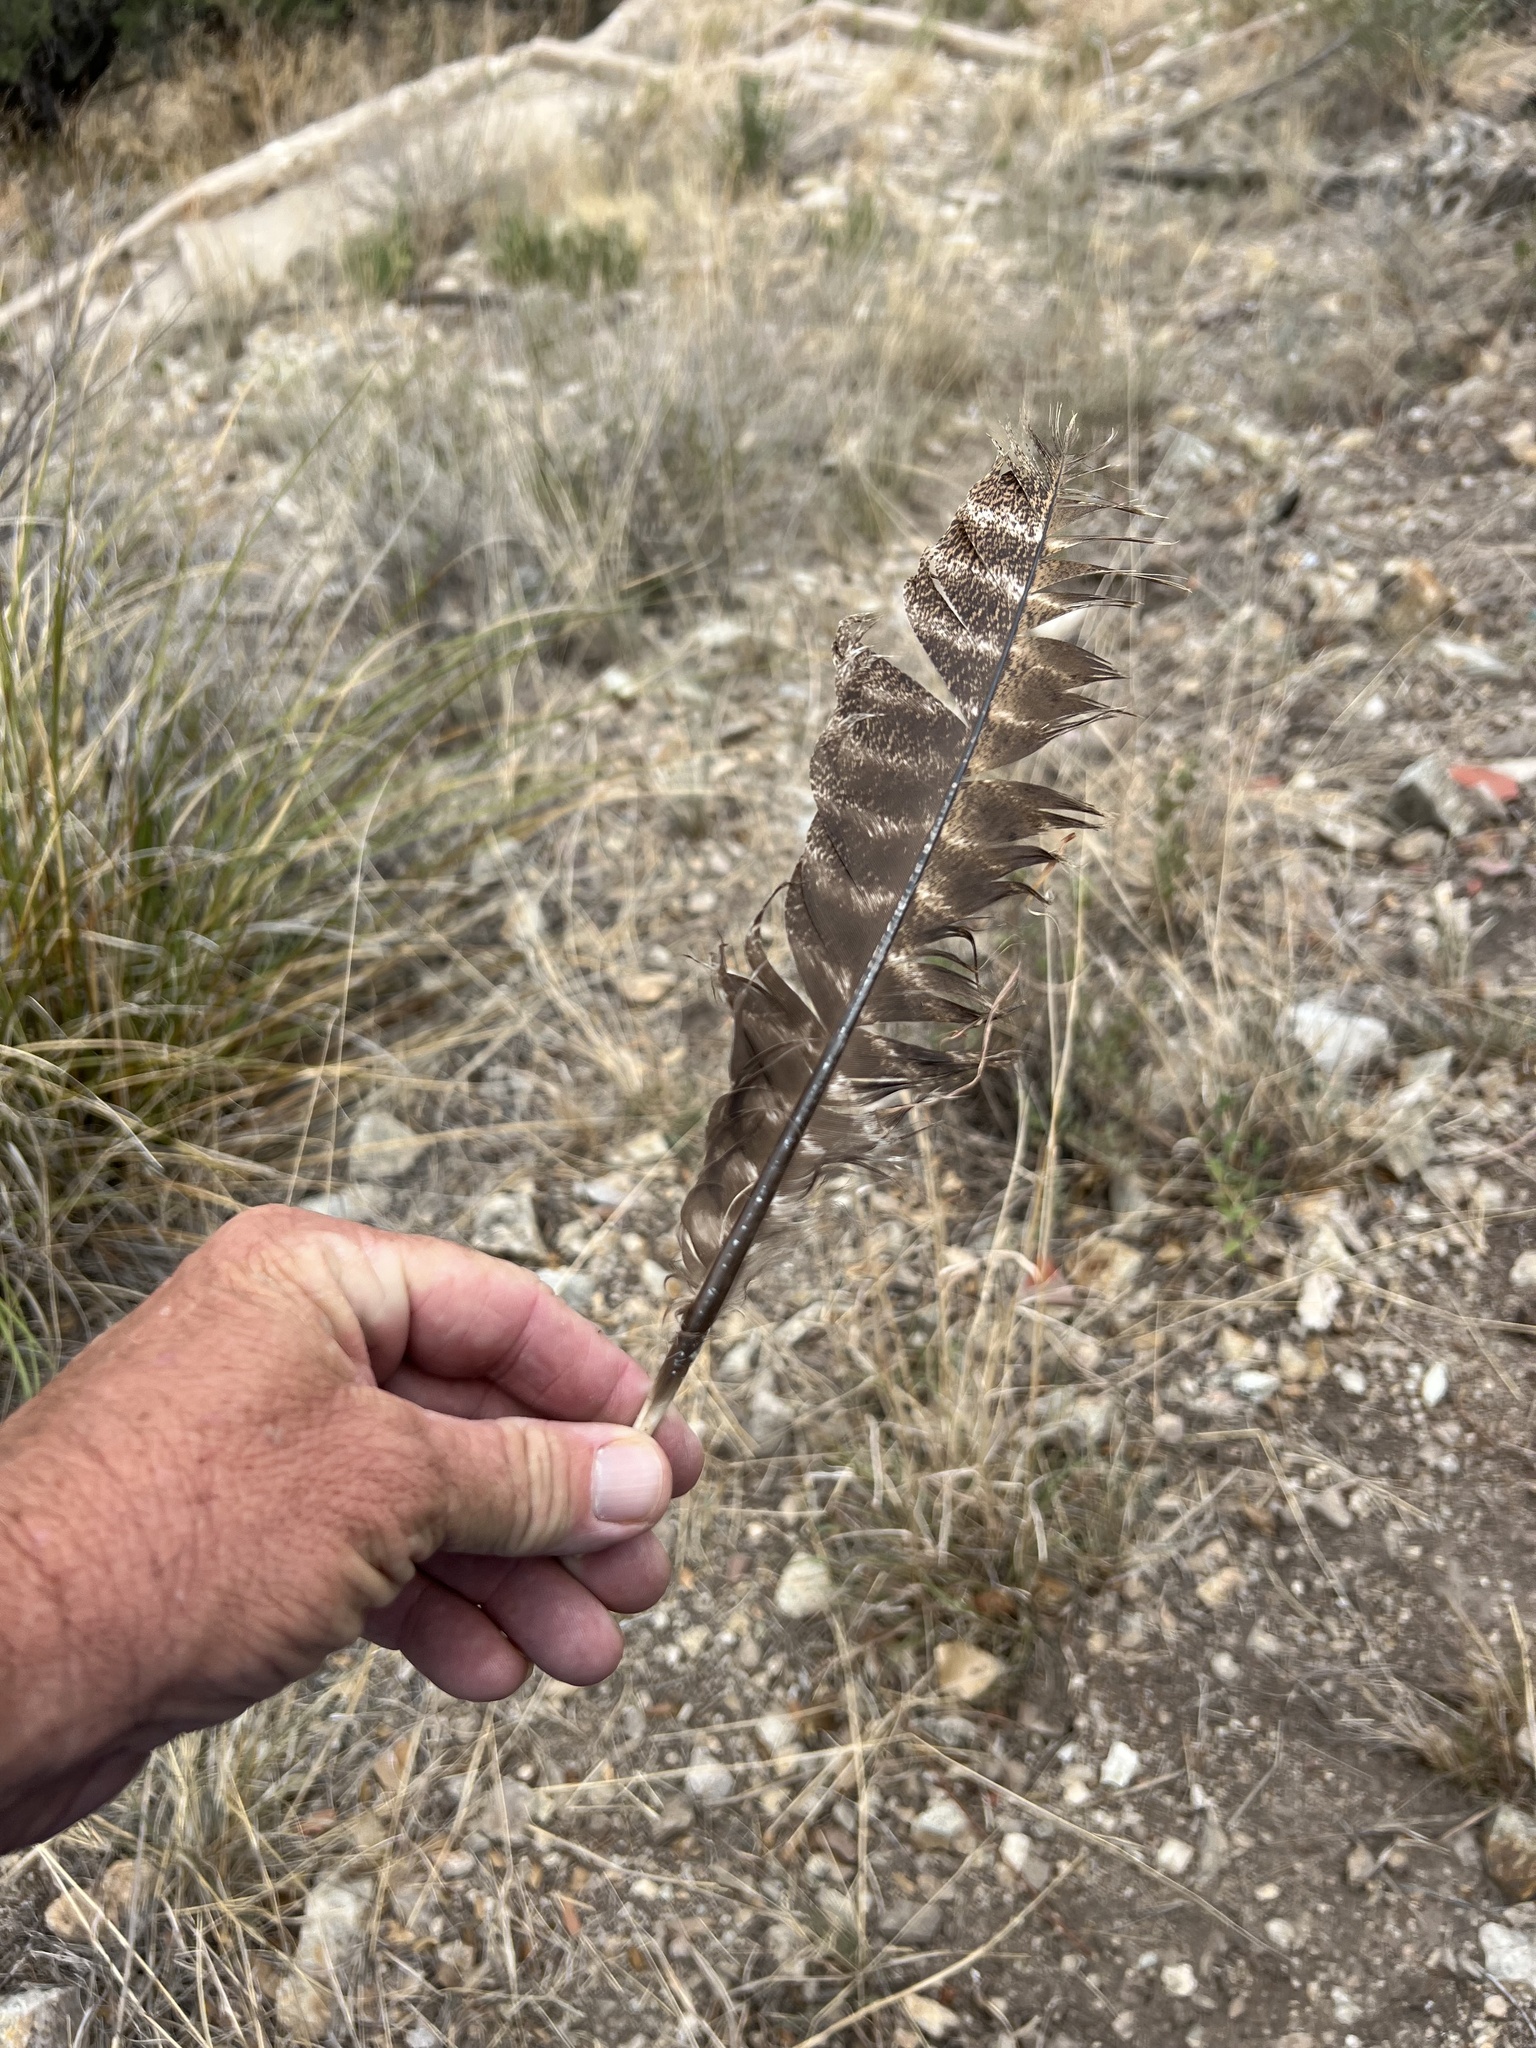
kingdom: Animalia
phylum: Chordata
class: Aves
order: Galliformes
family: Phasianidae
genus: Meleagris
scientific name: Meleagris gallopavo
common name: Wild turkey
